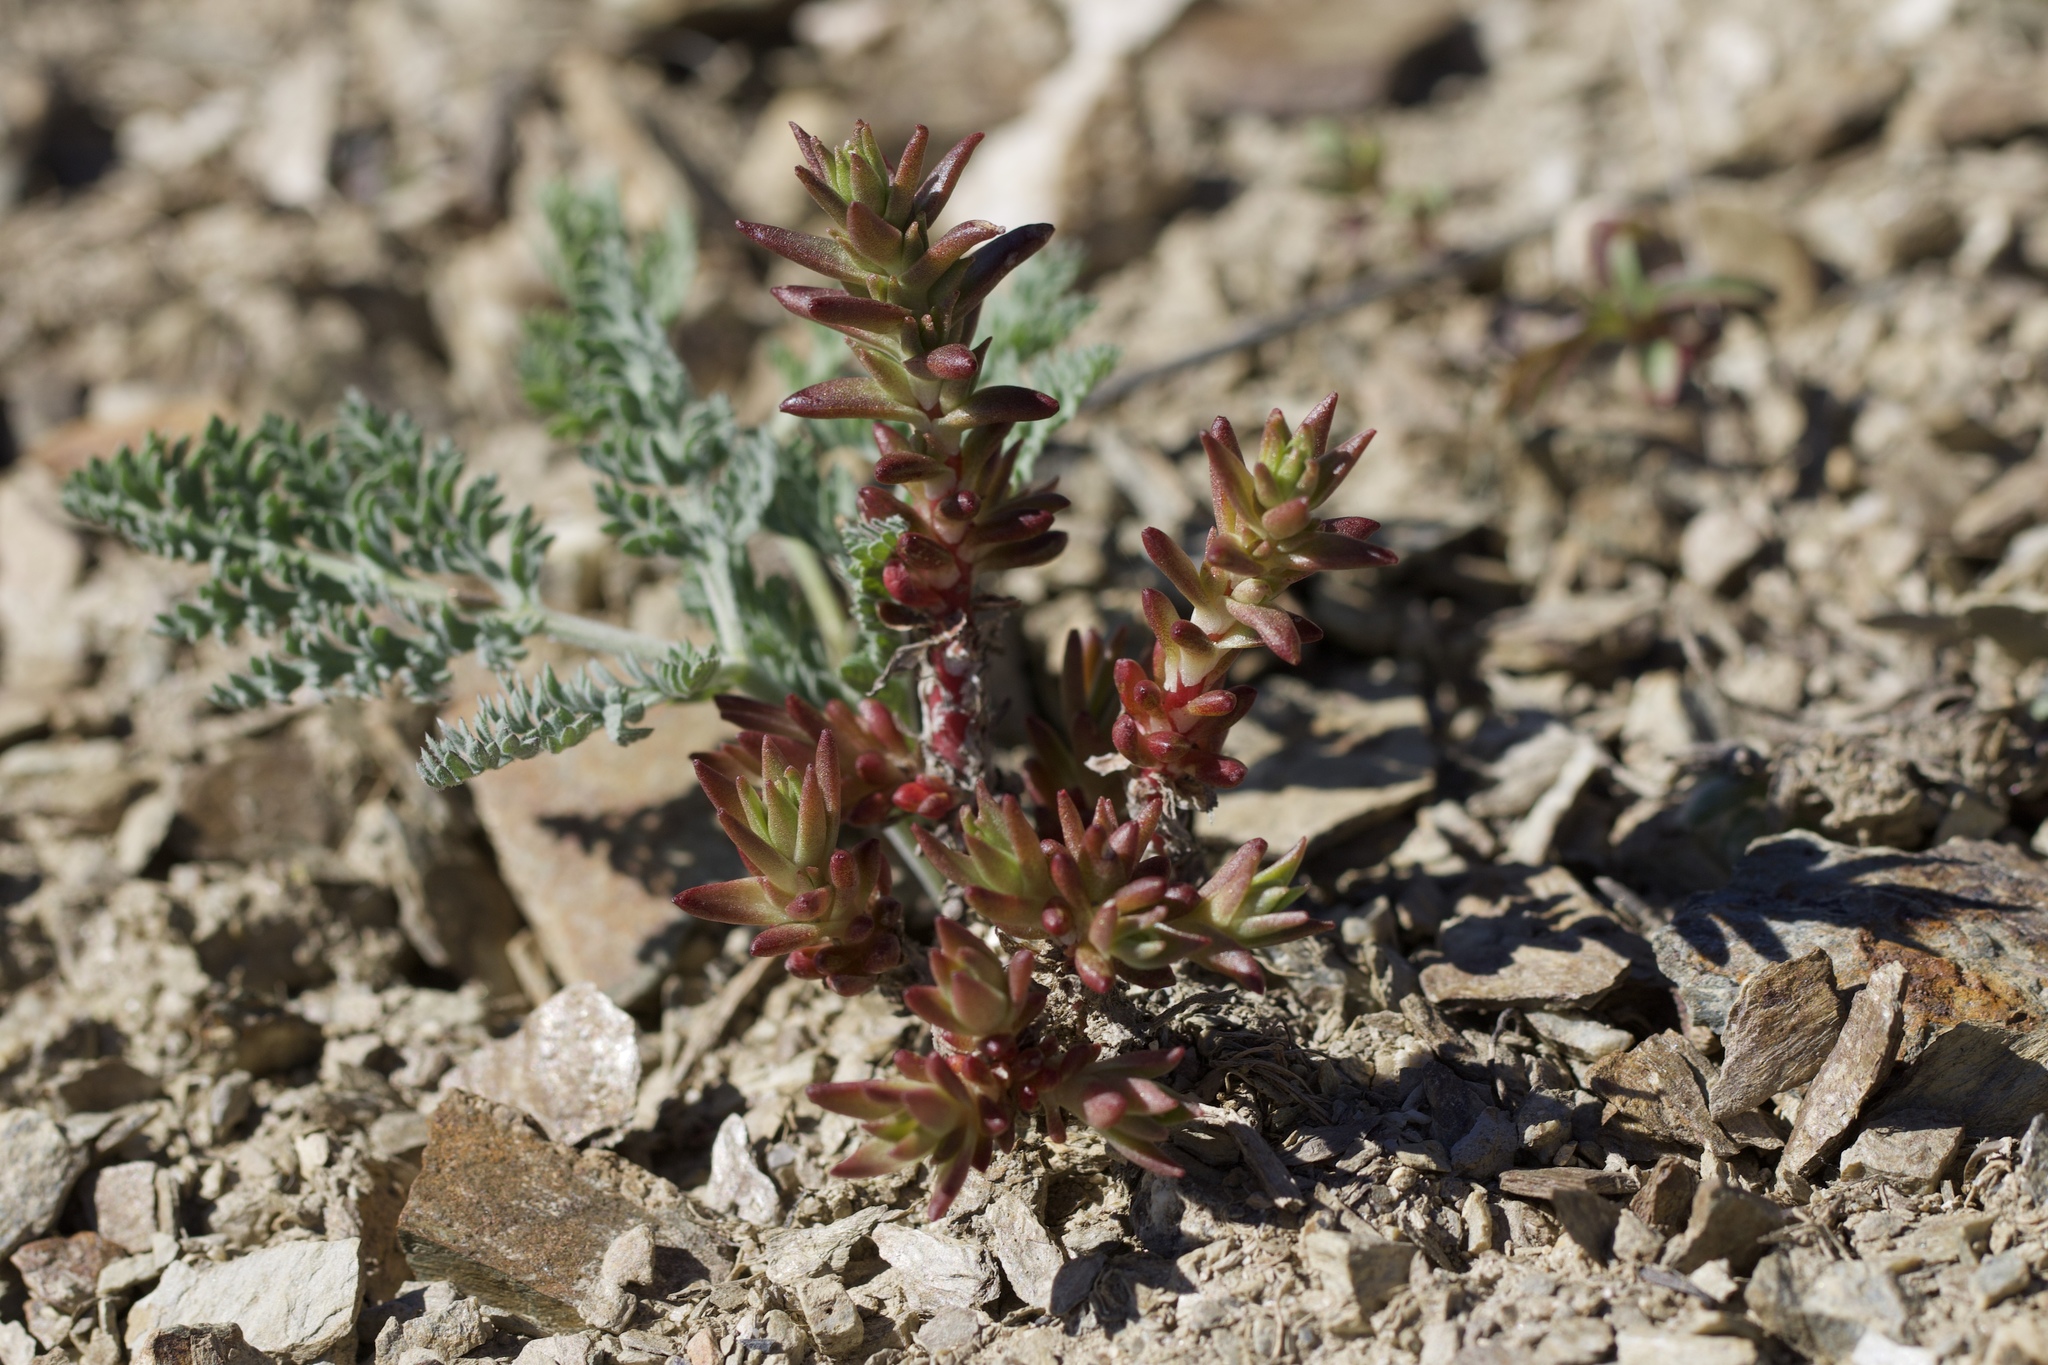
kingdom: Plantae
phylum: Tracheophyta
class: Magnoliopsida
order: Saxifragales
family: Crassulaceae
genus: Sedum
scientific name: Sedum stenopetalum
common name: Narrow-petaled stonecrop
